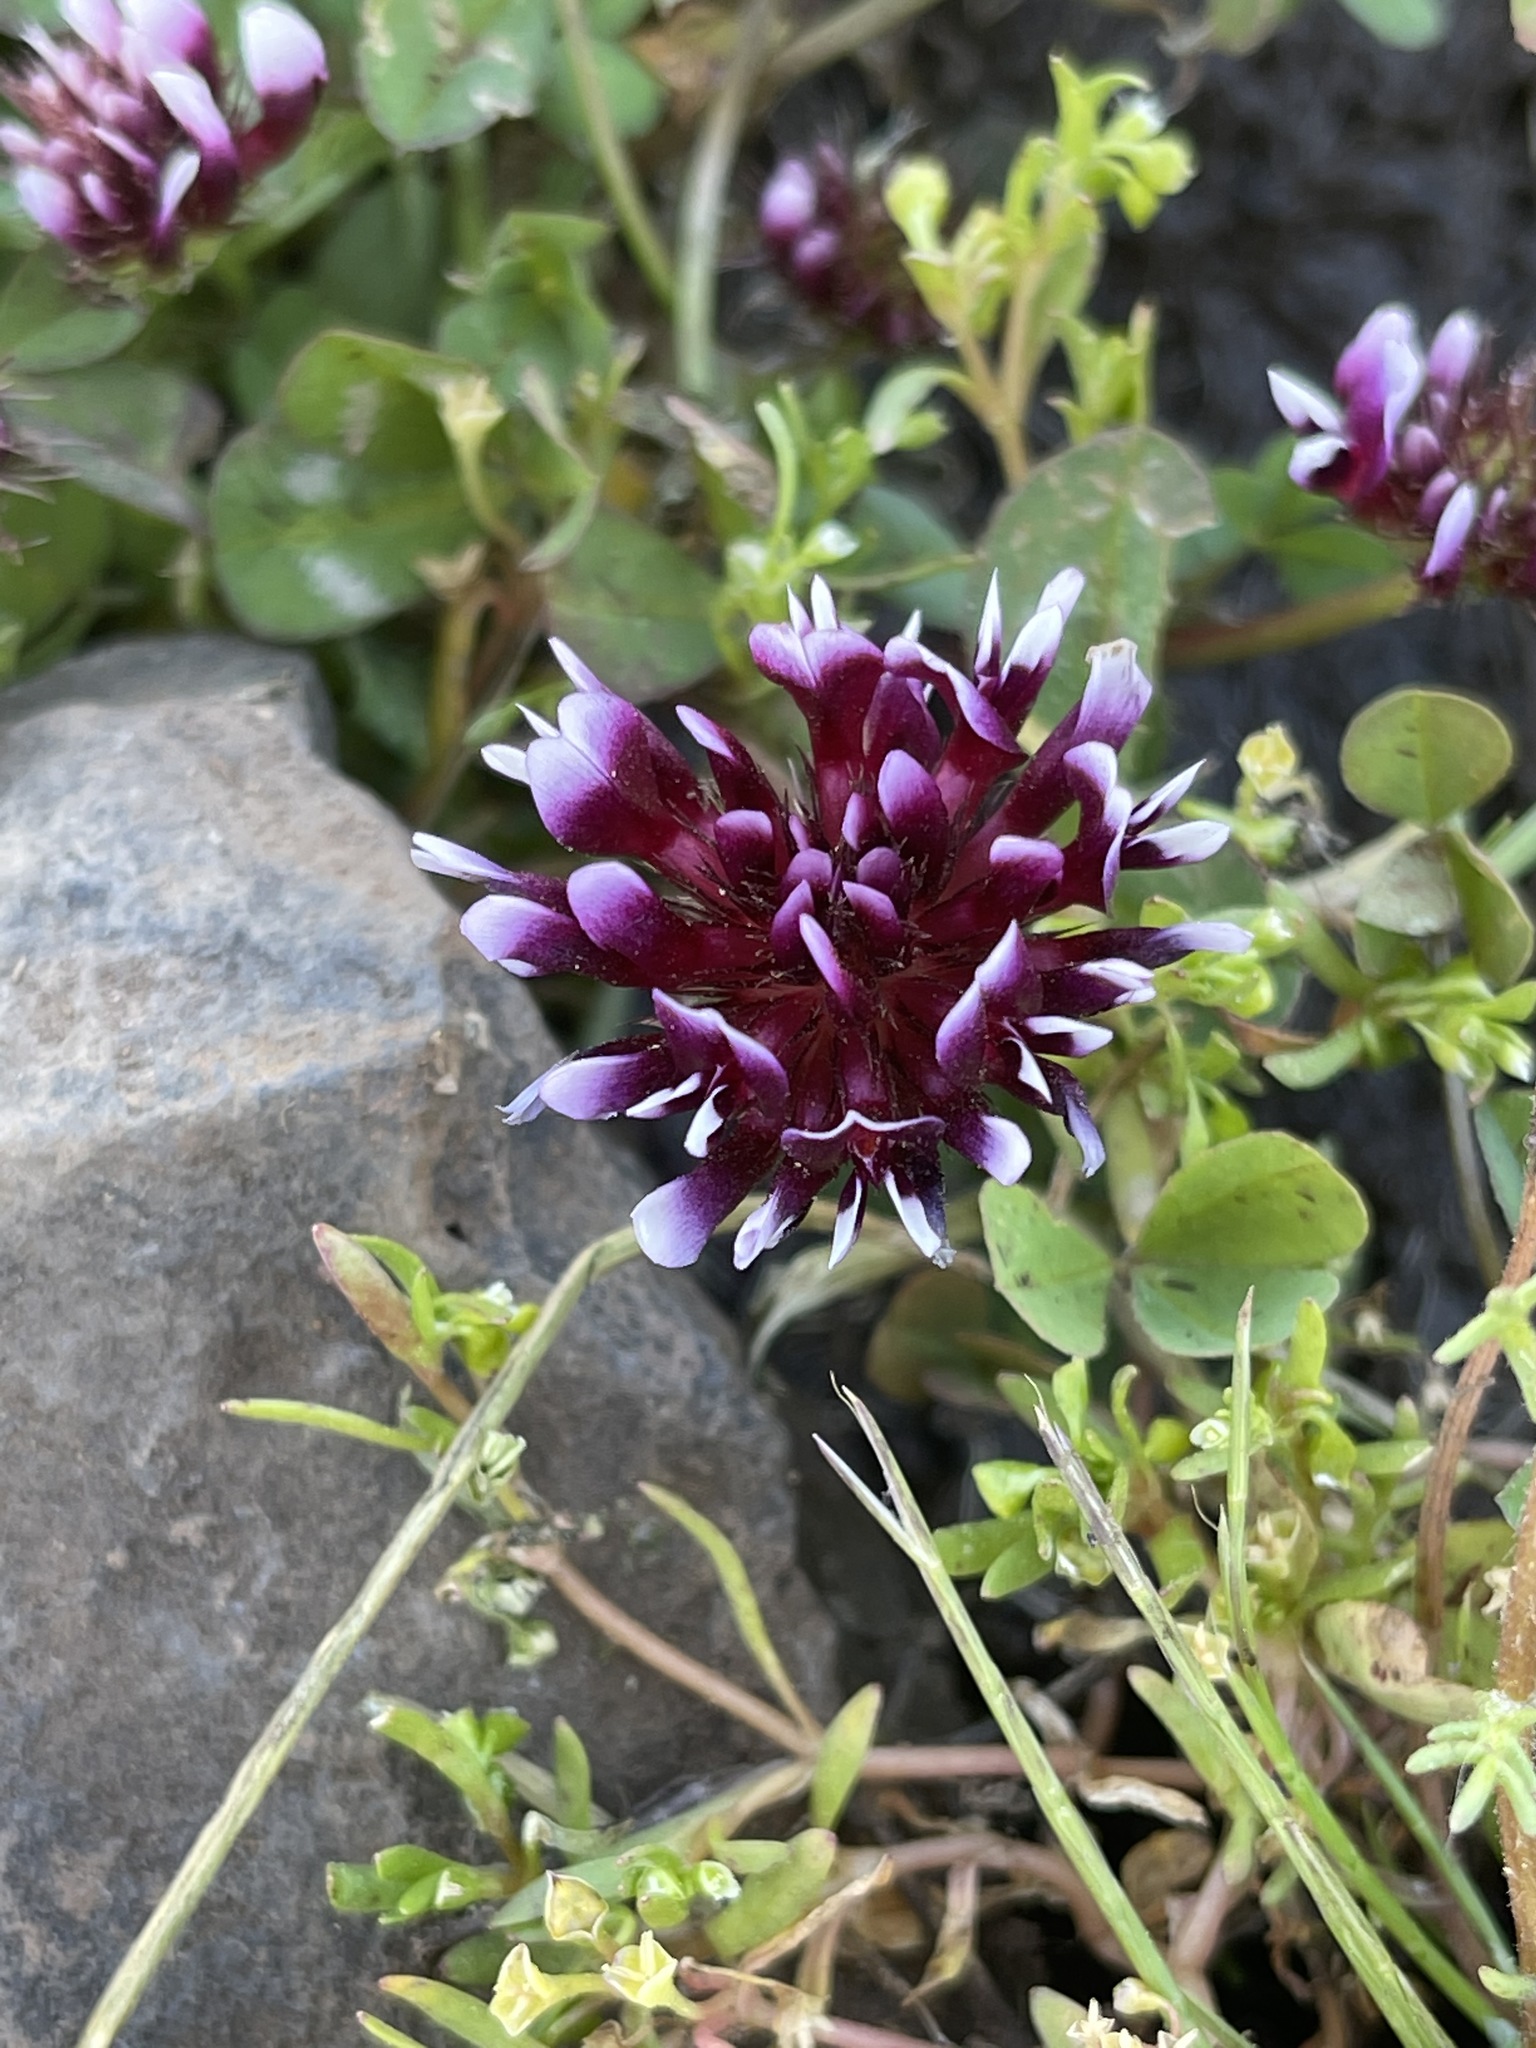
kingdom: Plantae
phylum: Tracheophyta
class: Magnoliopsida
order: Fabales
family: Fabaceae
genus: Trifolium
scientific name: Trifolium variegatum
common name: Whitetip clover
